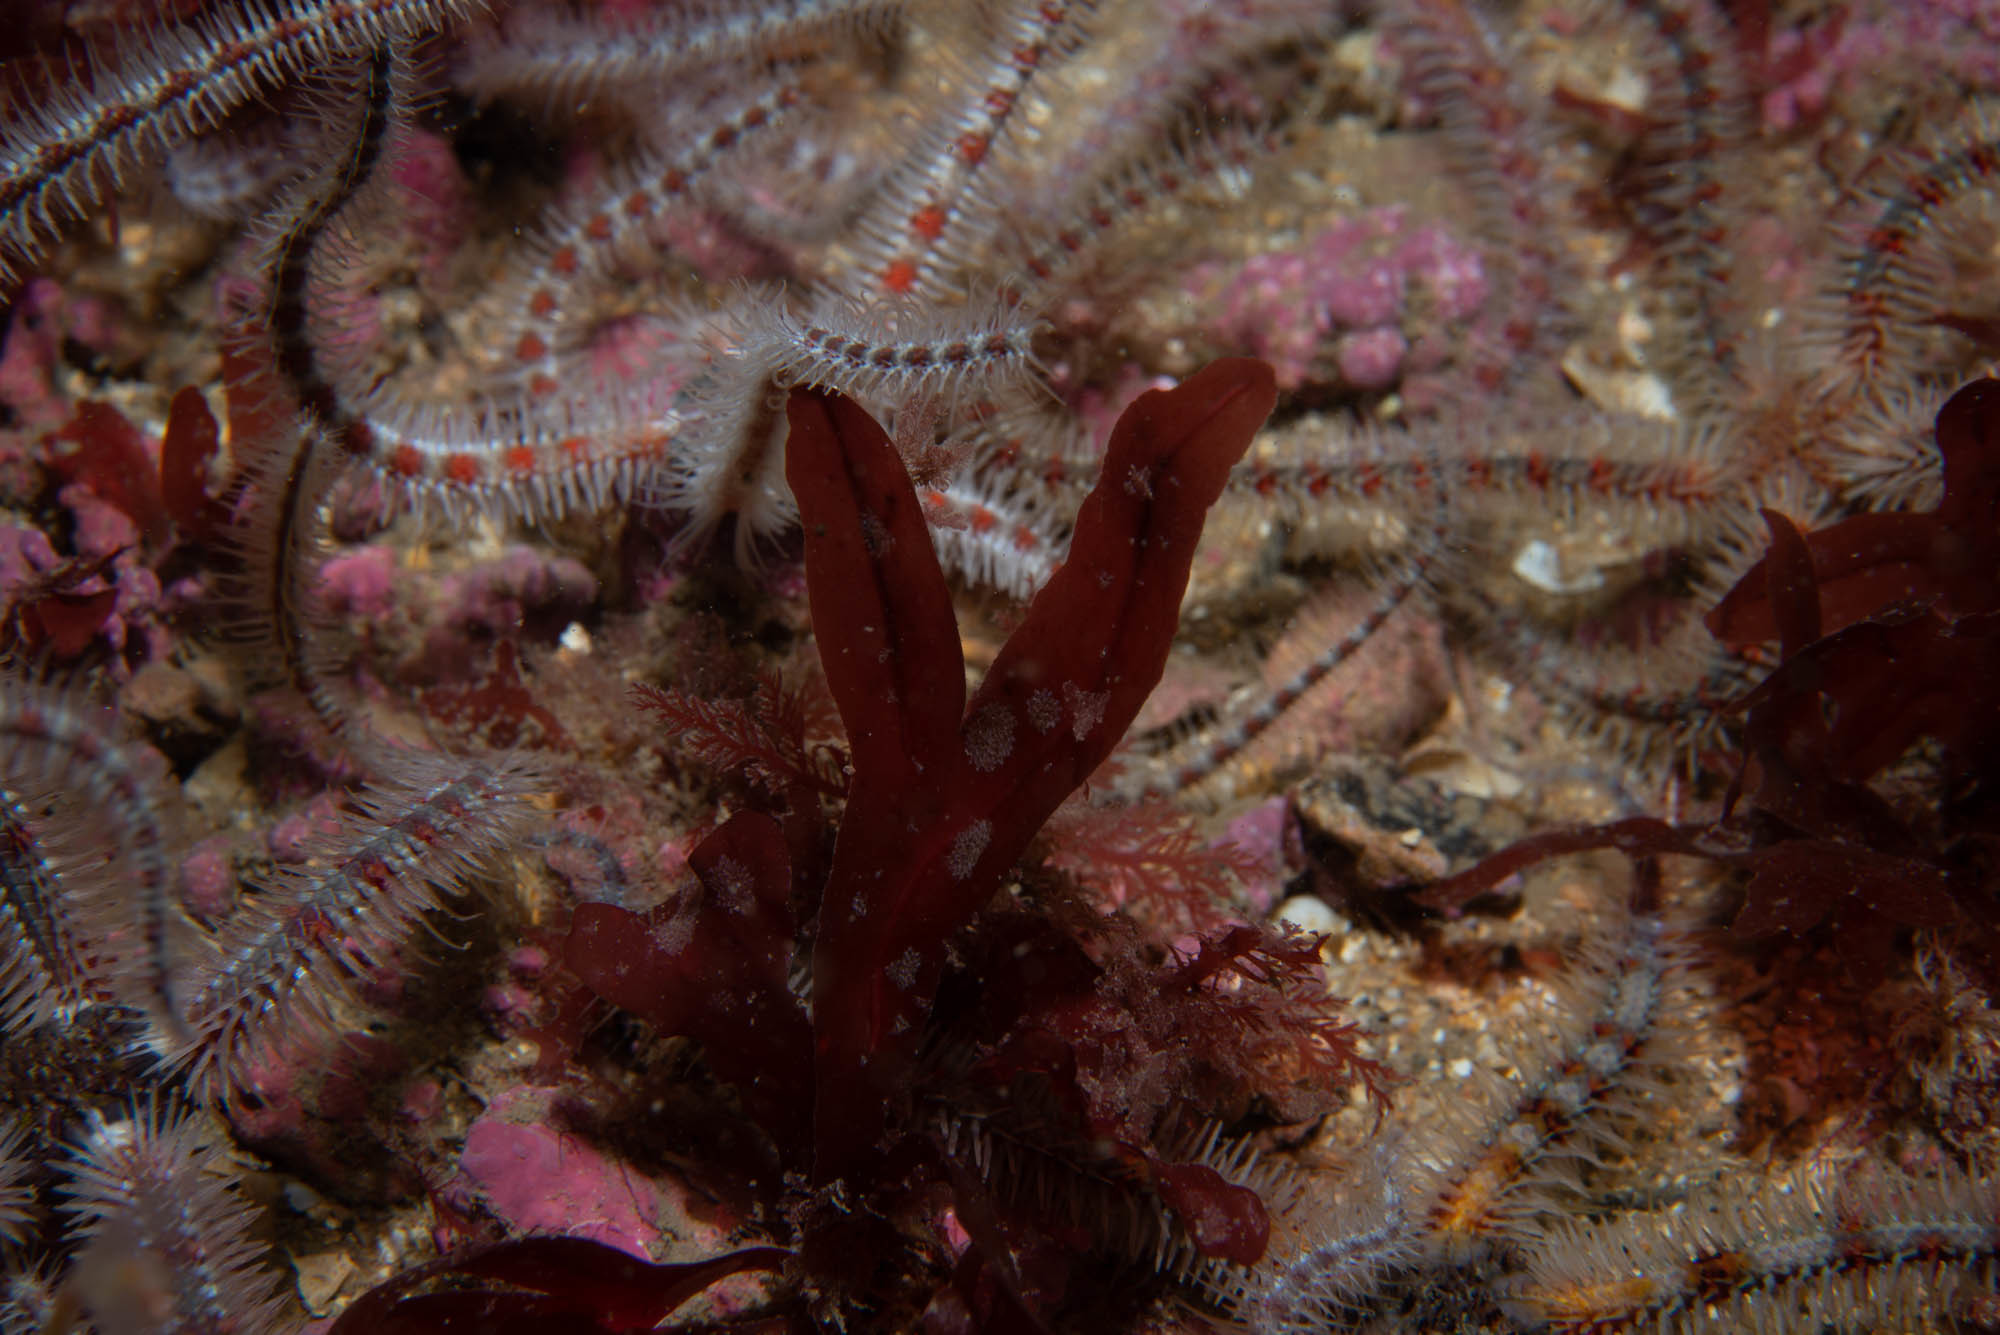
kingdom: Plantae
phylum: Rhodophyta
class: Florideophyceae
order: Gigartinales
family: Phyllophoraceae
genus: Stenogramma
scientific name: Stenogramma interruptum
